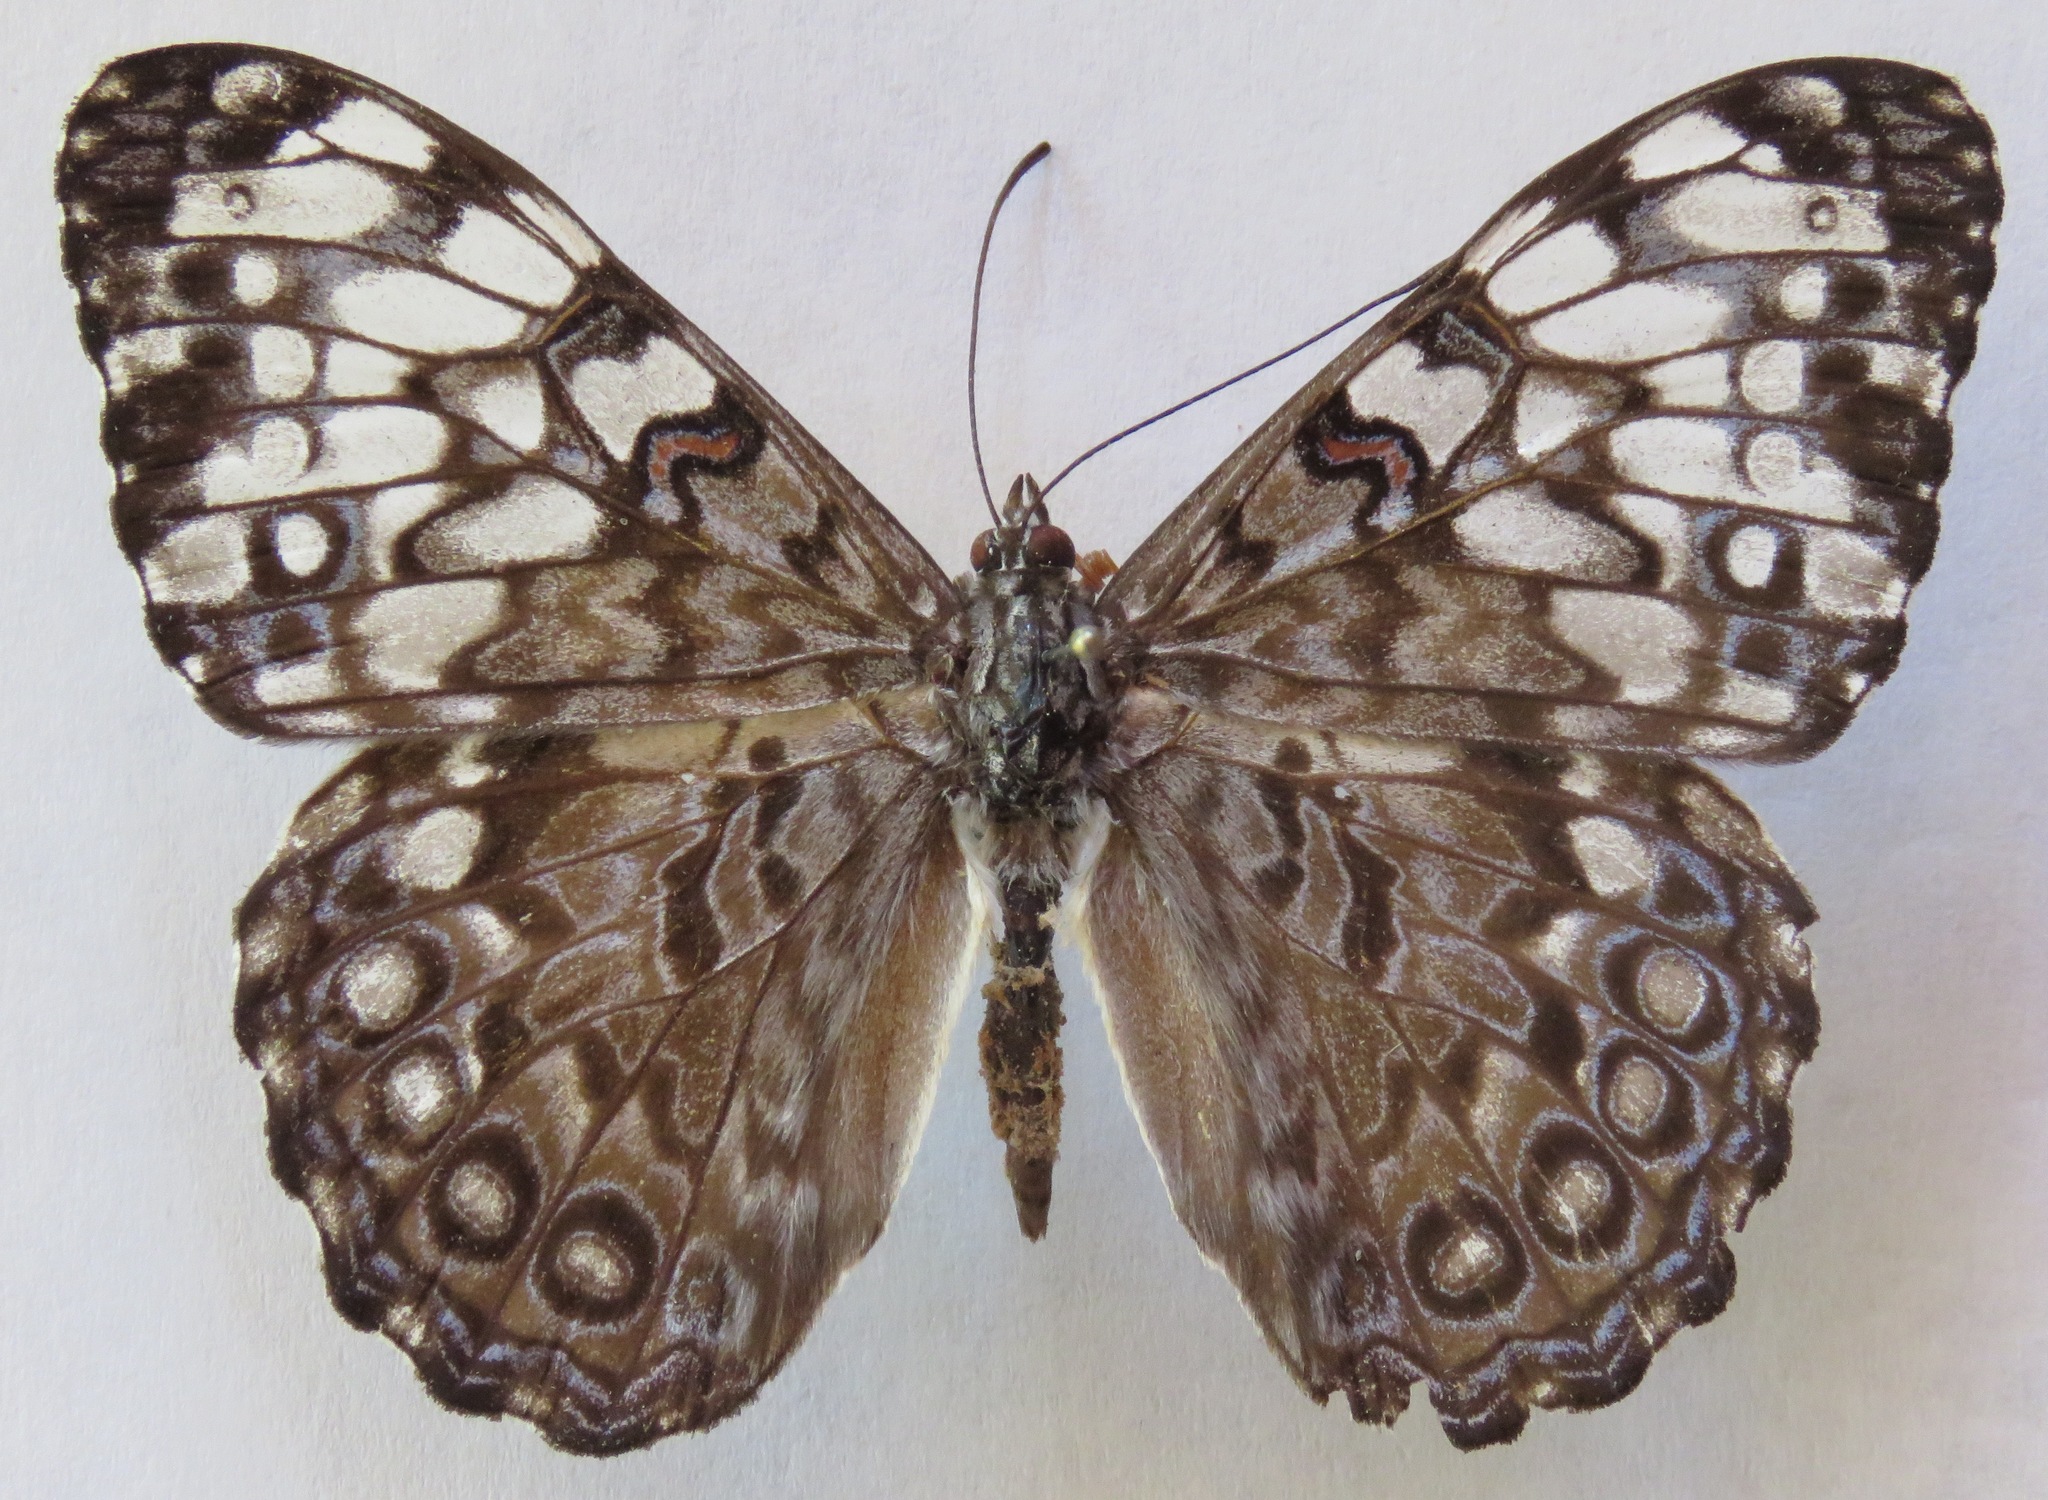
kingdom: Animalia
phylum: Arthropoda
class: Insecta
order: Lepidoptera
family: Nymphalidae
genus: Hamadryas
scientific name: Hamadryas guatemalena
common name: Guatemalan cracker
